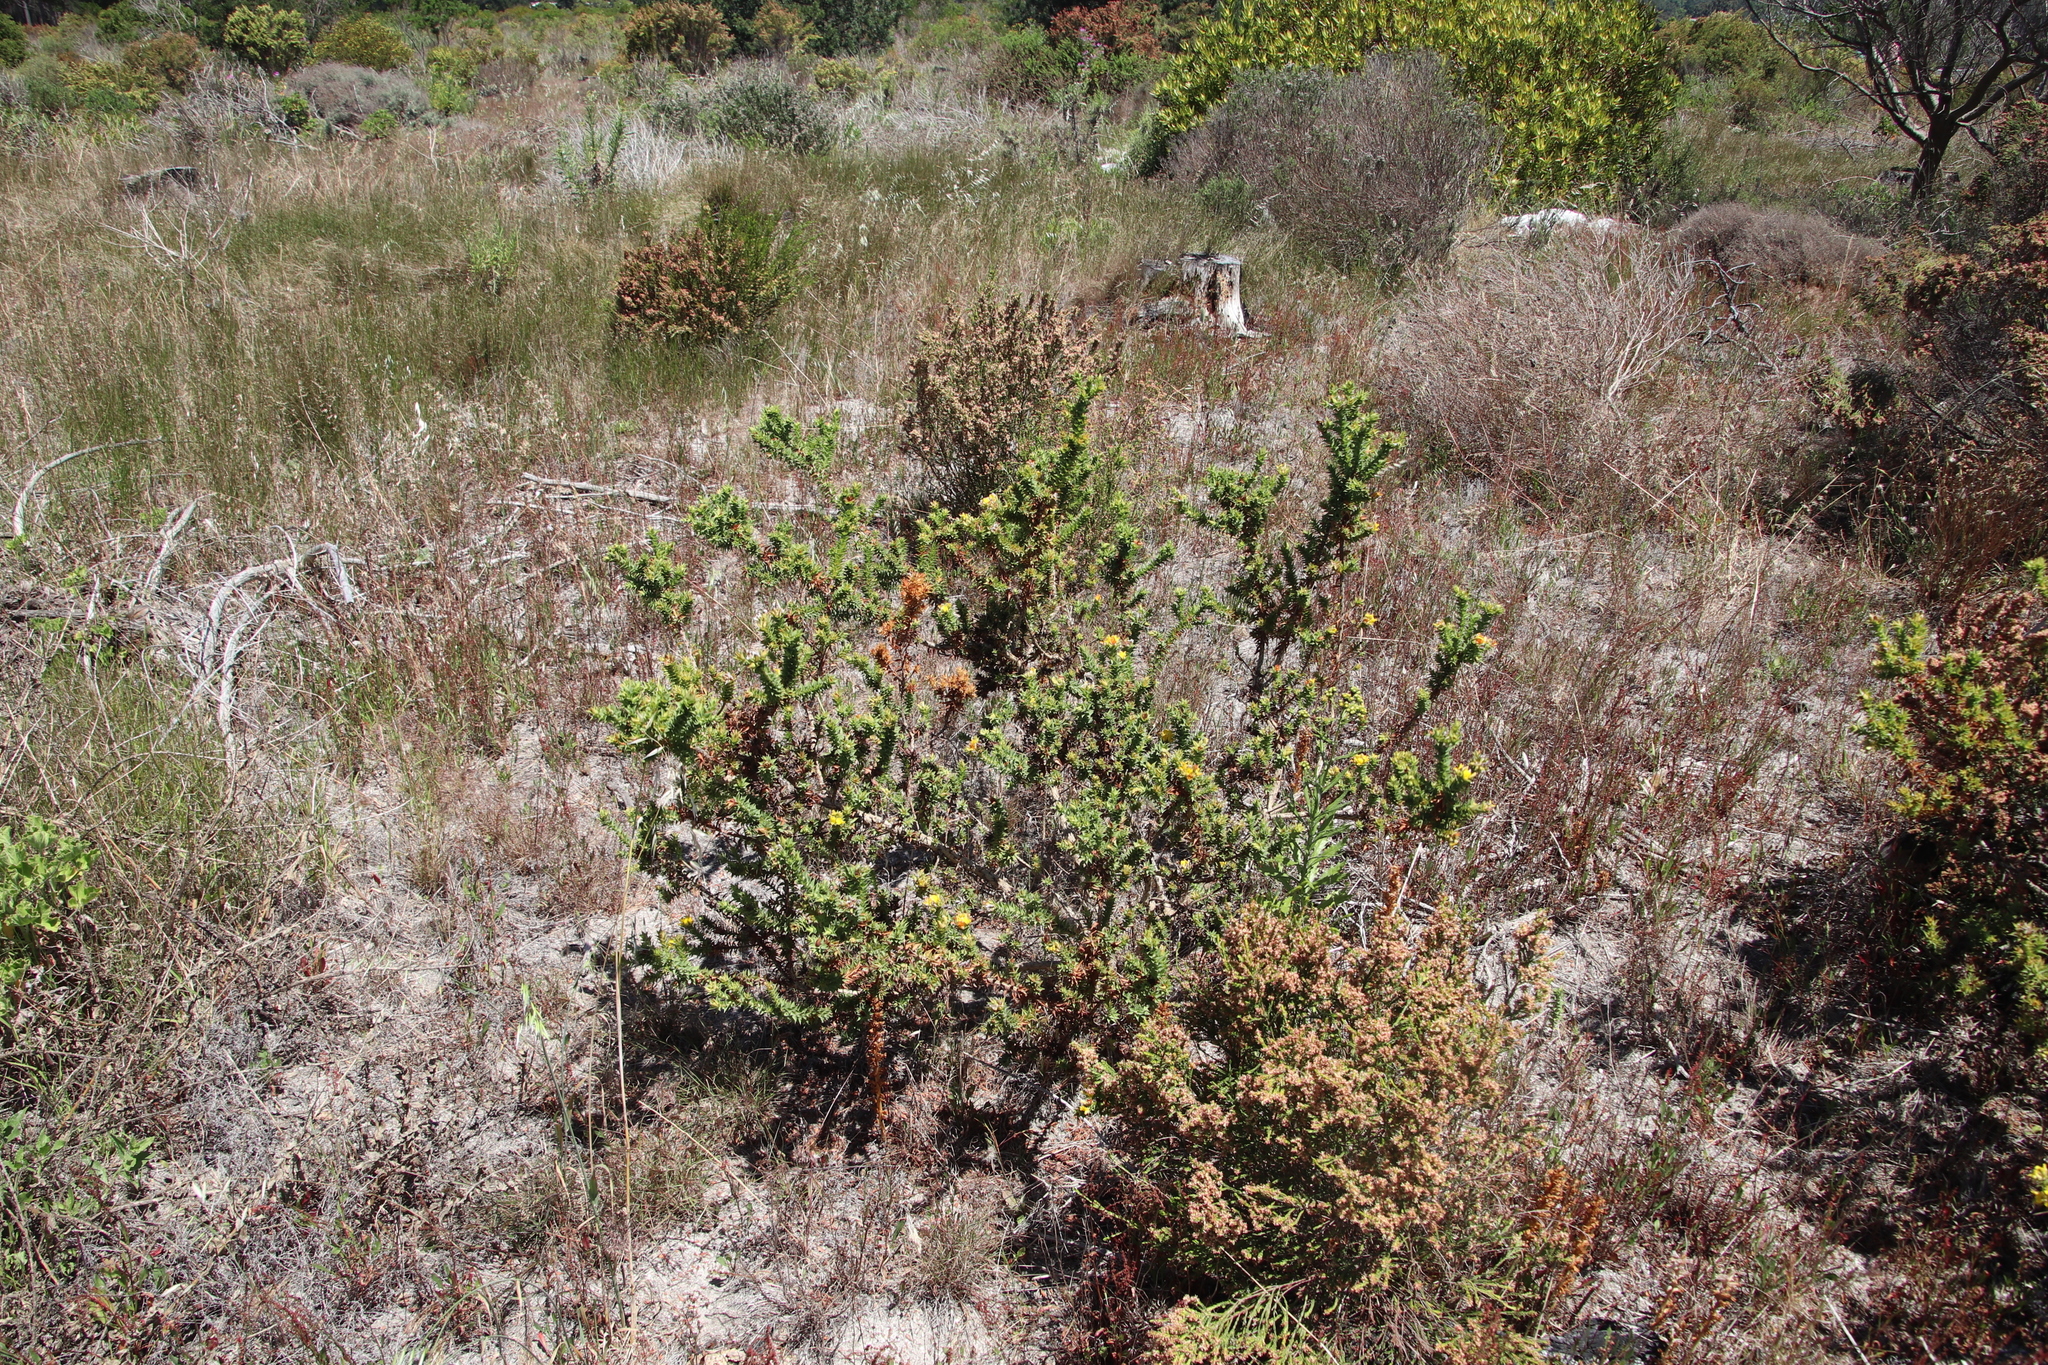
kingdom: Plantae
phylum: Tracheophyta
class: Magnoliopsida
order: Fabales
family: Fabaceae
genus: Aspalathus
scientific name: Aspalathus cordata
